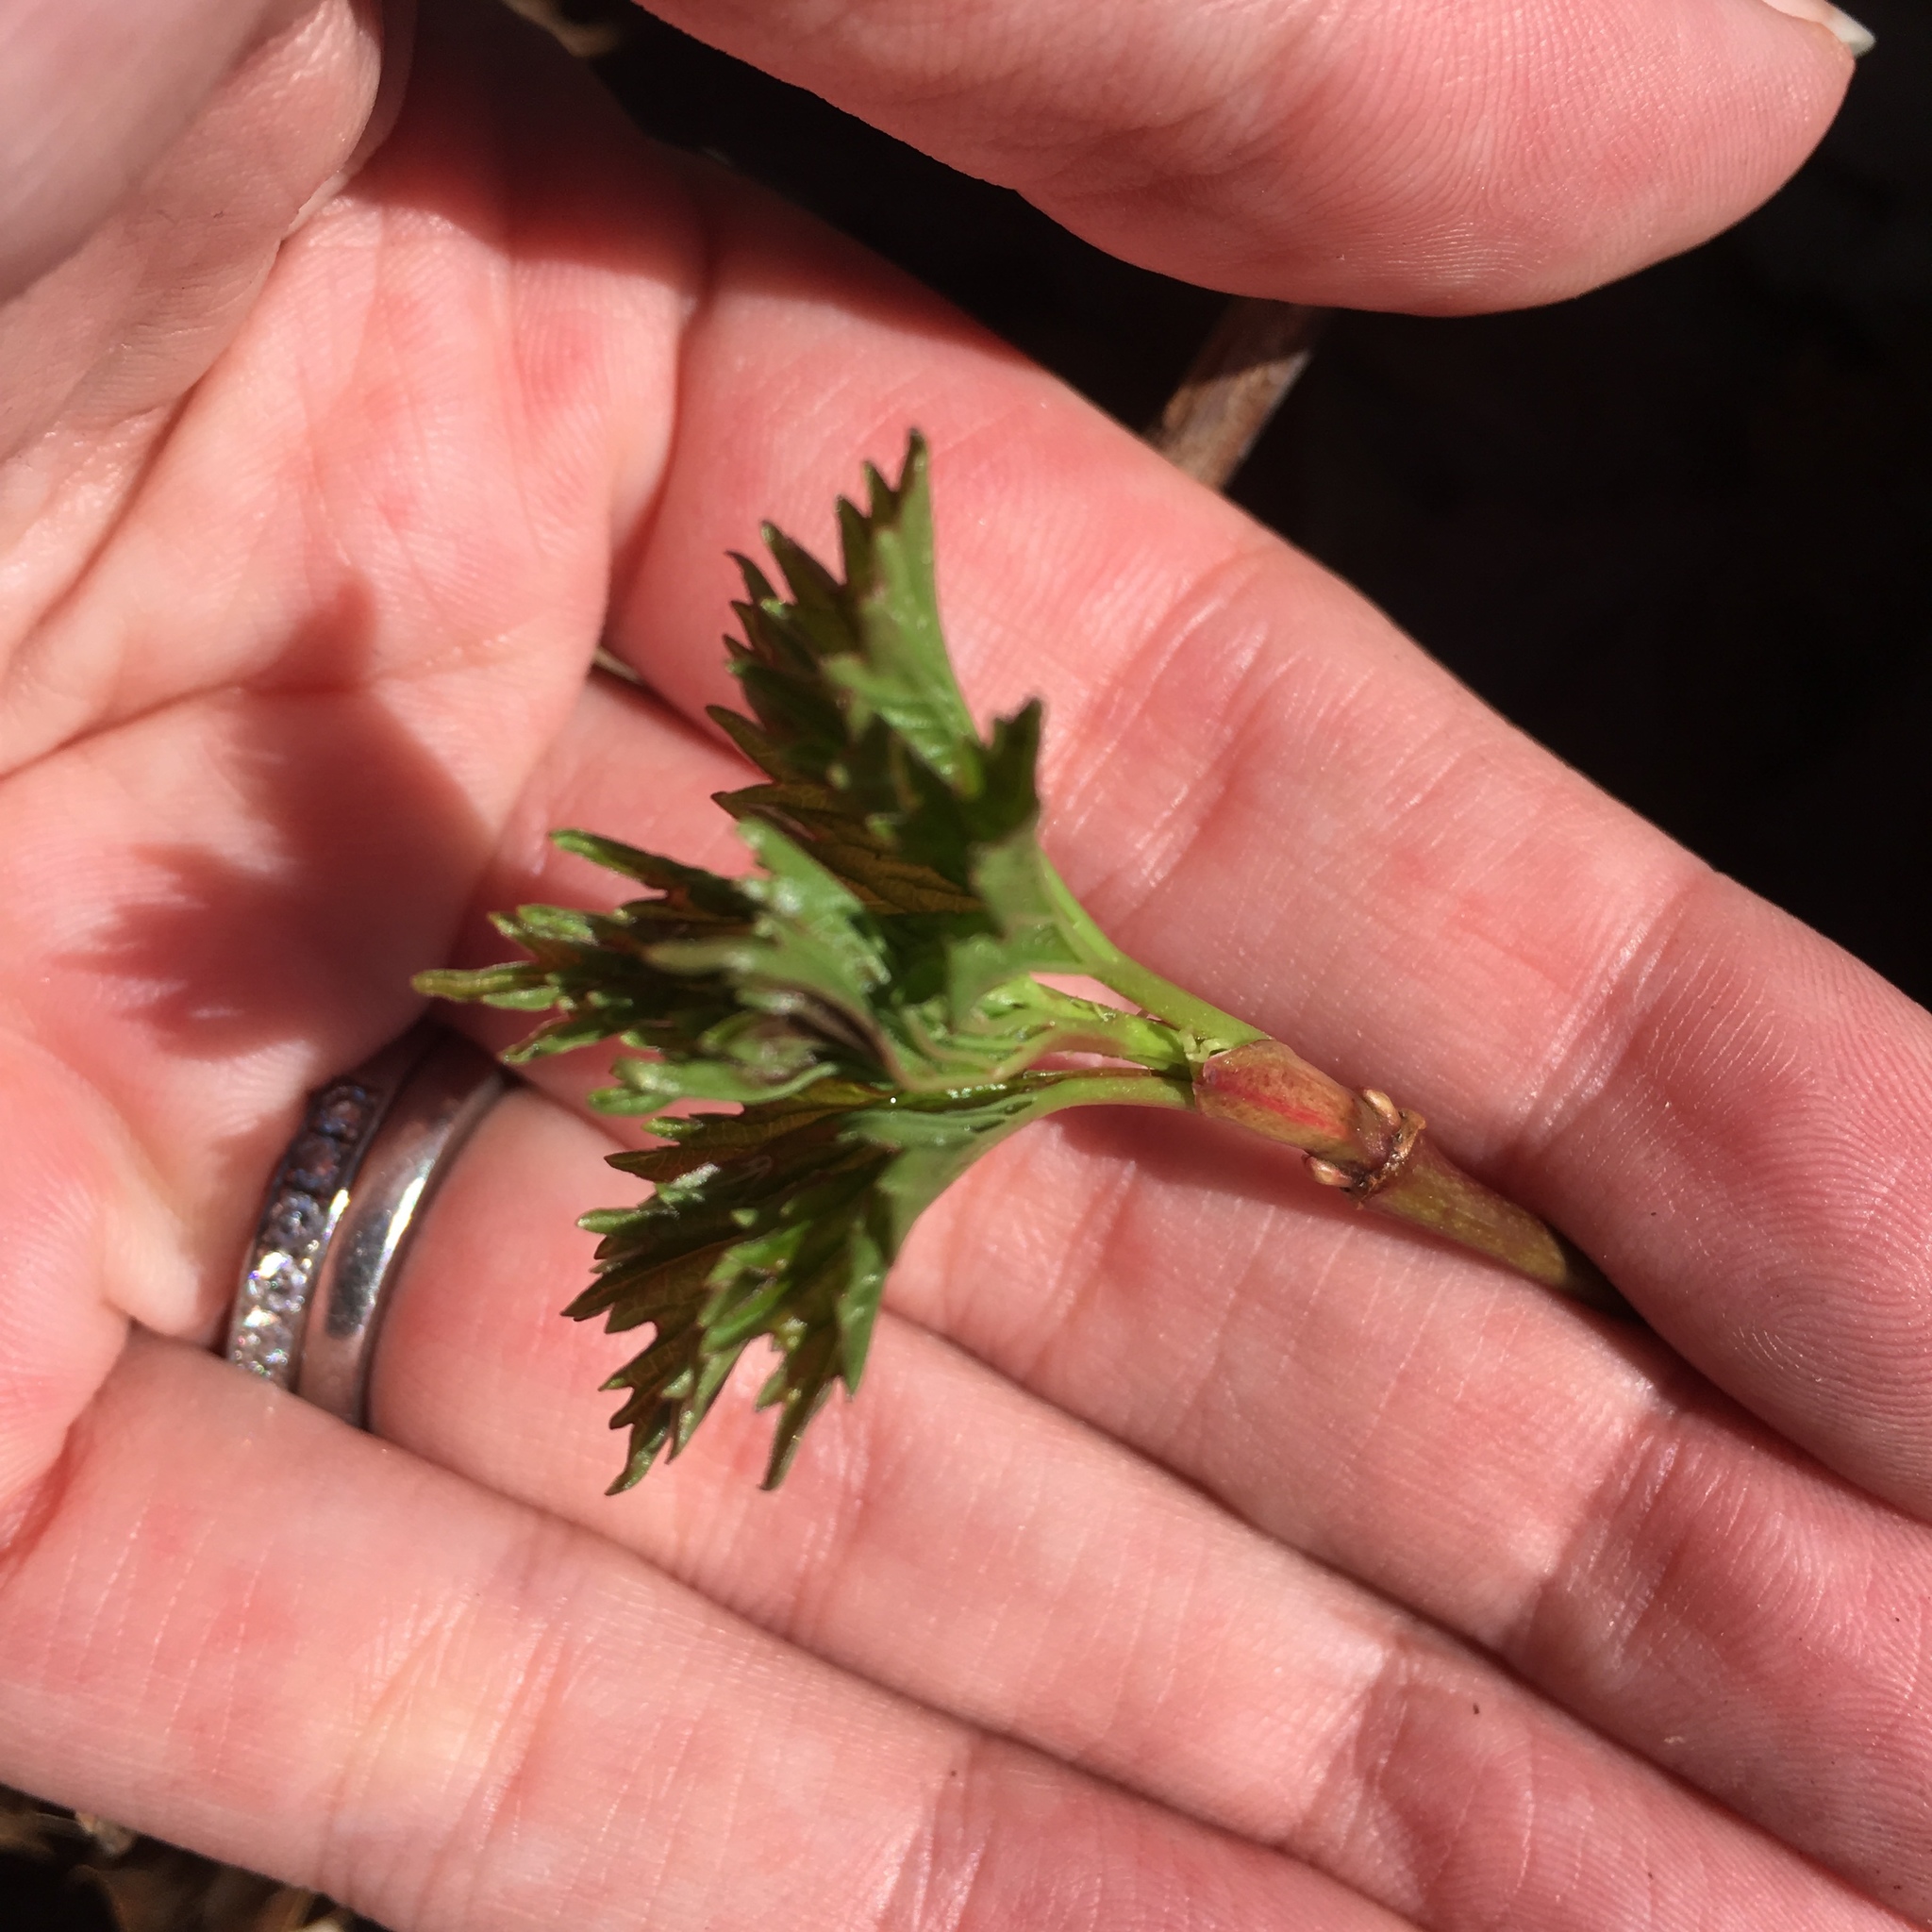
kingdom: Plantae
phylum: Tracheophyta
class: Magnoliopsida
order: Dipsacales
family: Viburnaceae
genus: Viburnum
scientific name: Viburnum opulus
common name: Guelder-rose
